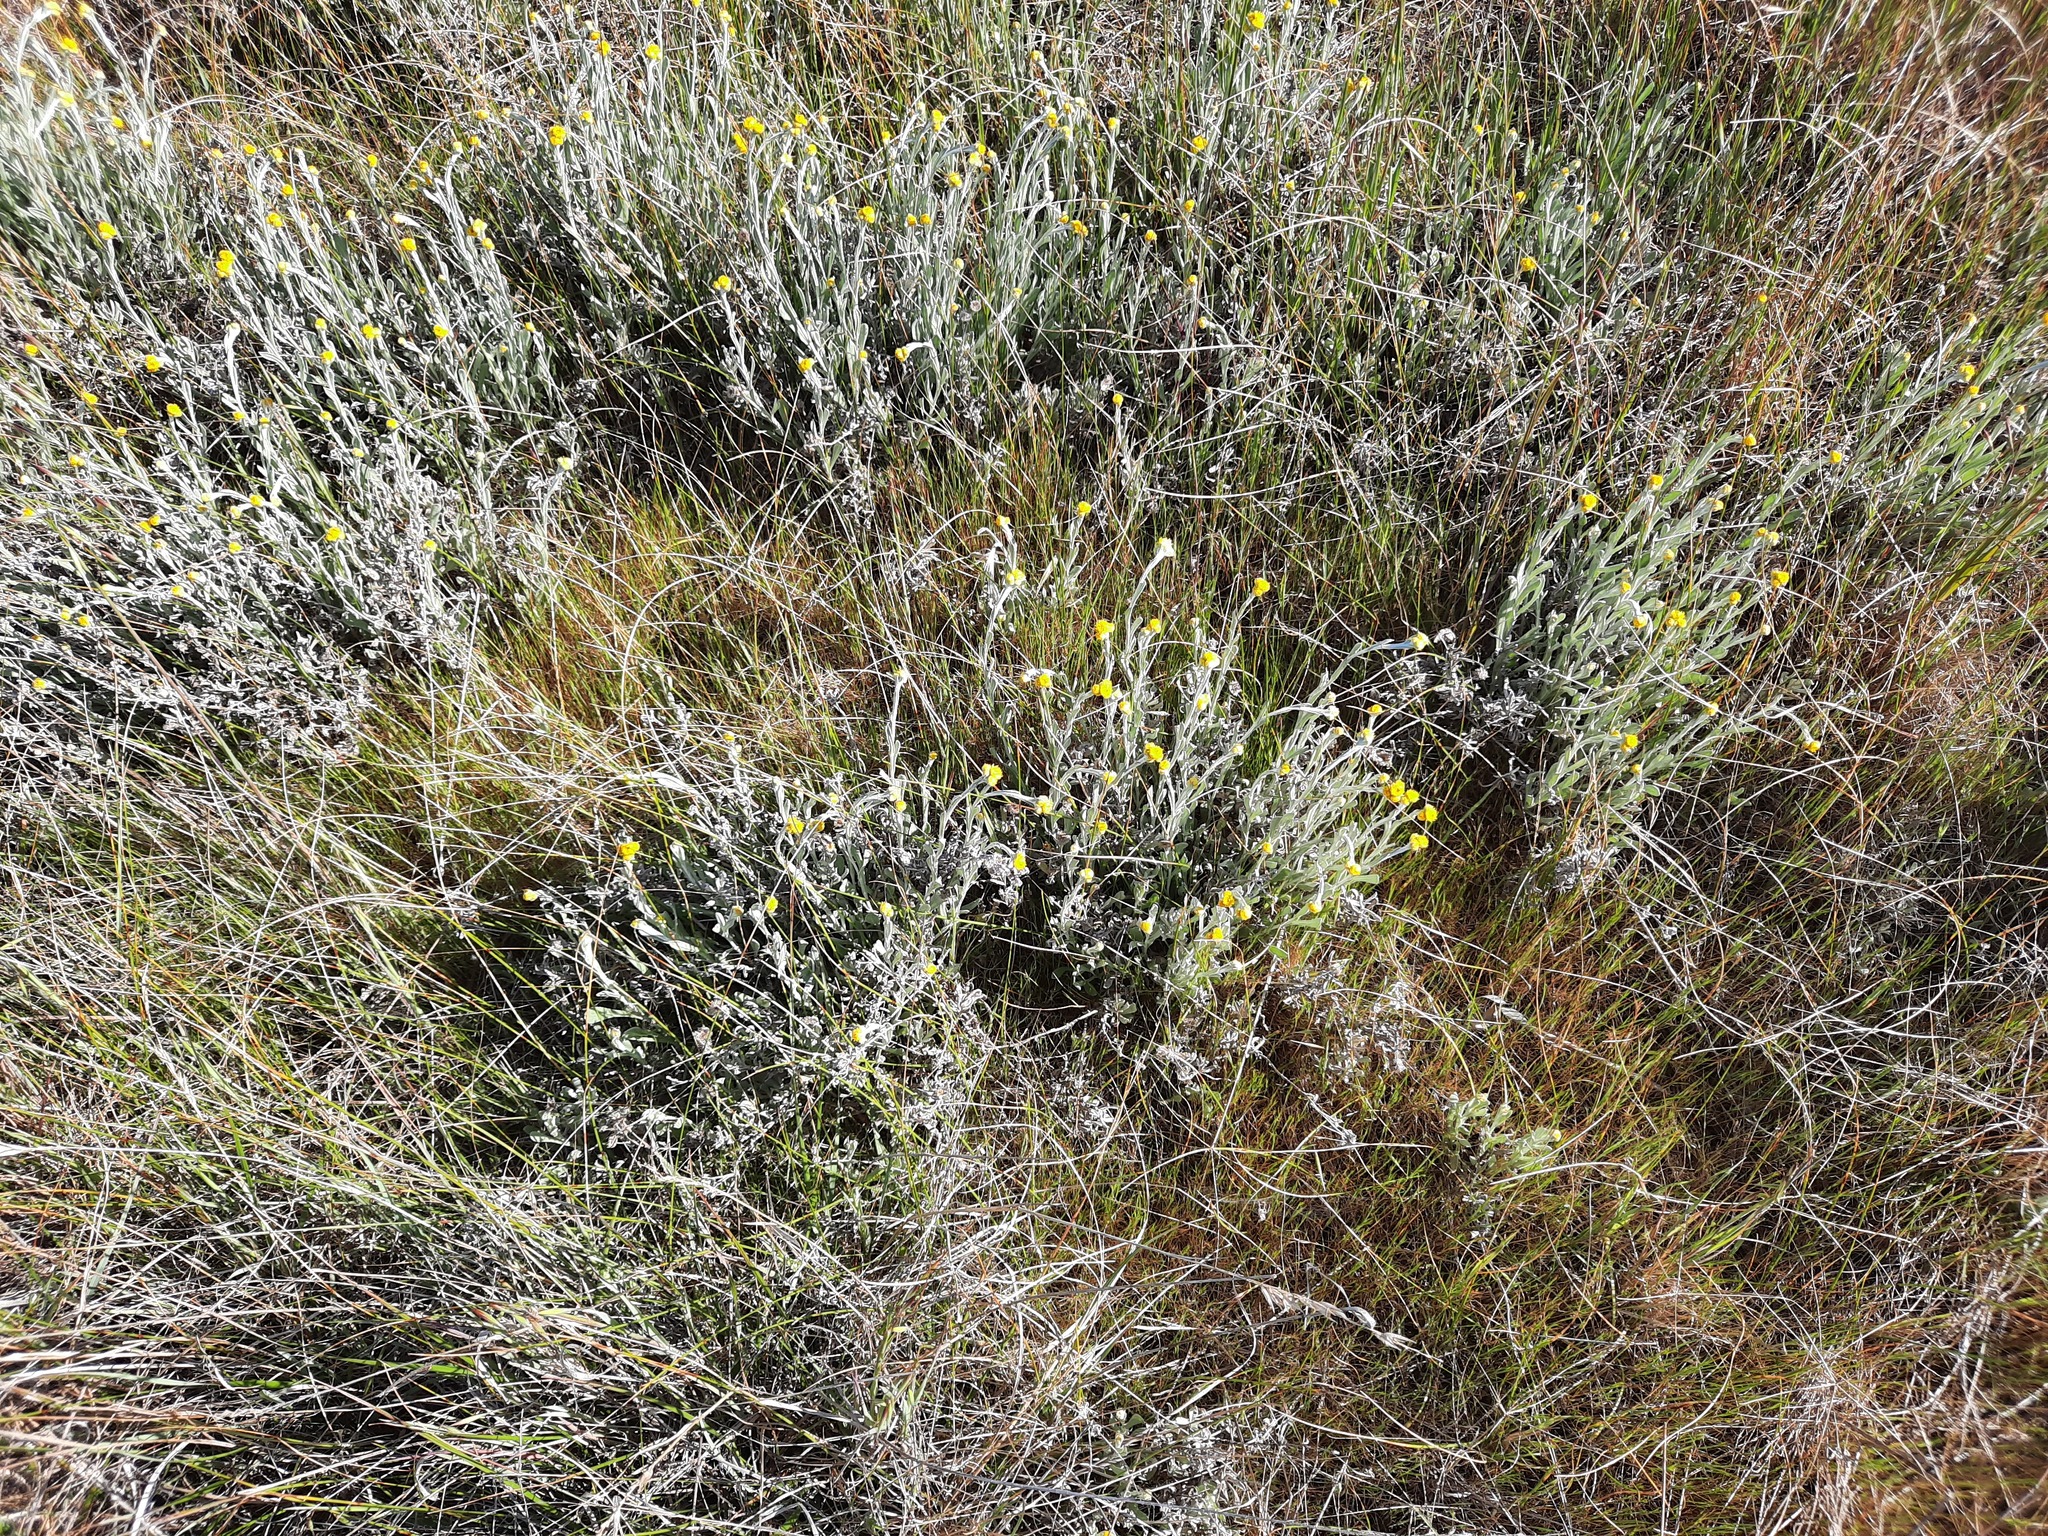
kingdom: Plantae
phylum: Tracheophyta
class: Magnoliopsida
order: Asterales
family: Asteraceae
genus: Chrysocephalum
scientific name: Chrysocephalum apiculatum
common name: Common everlasting
